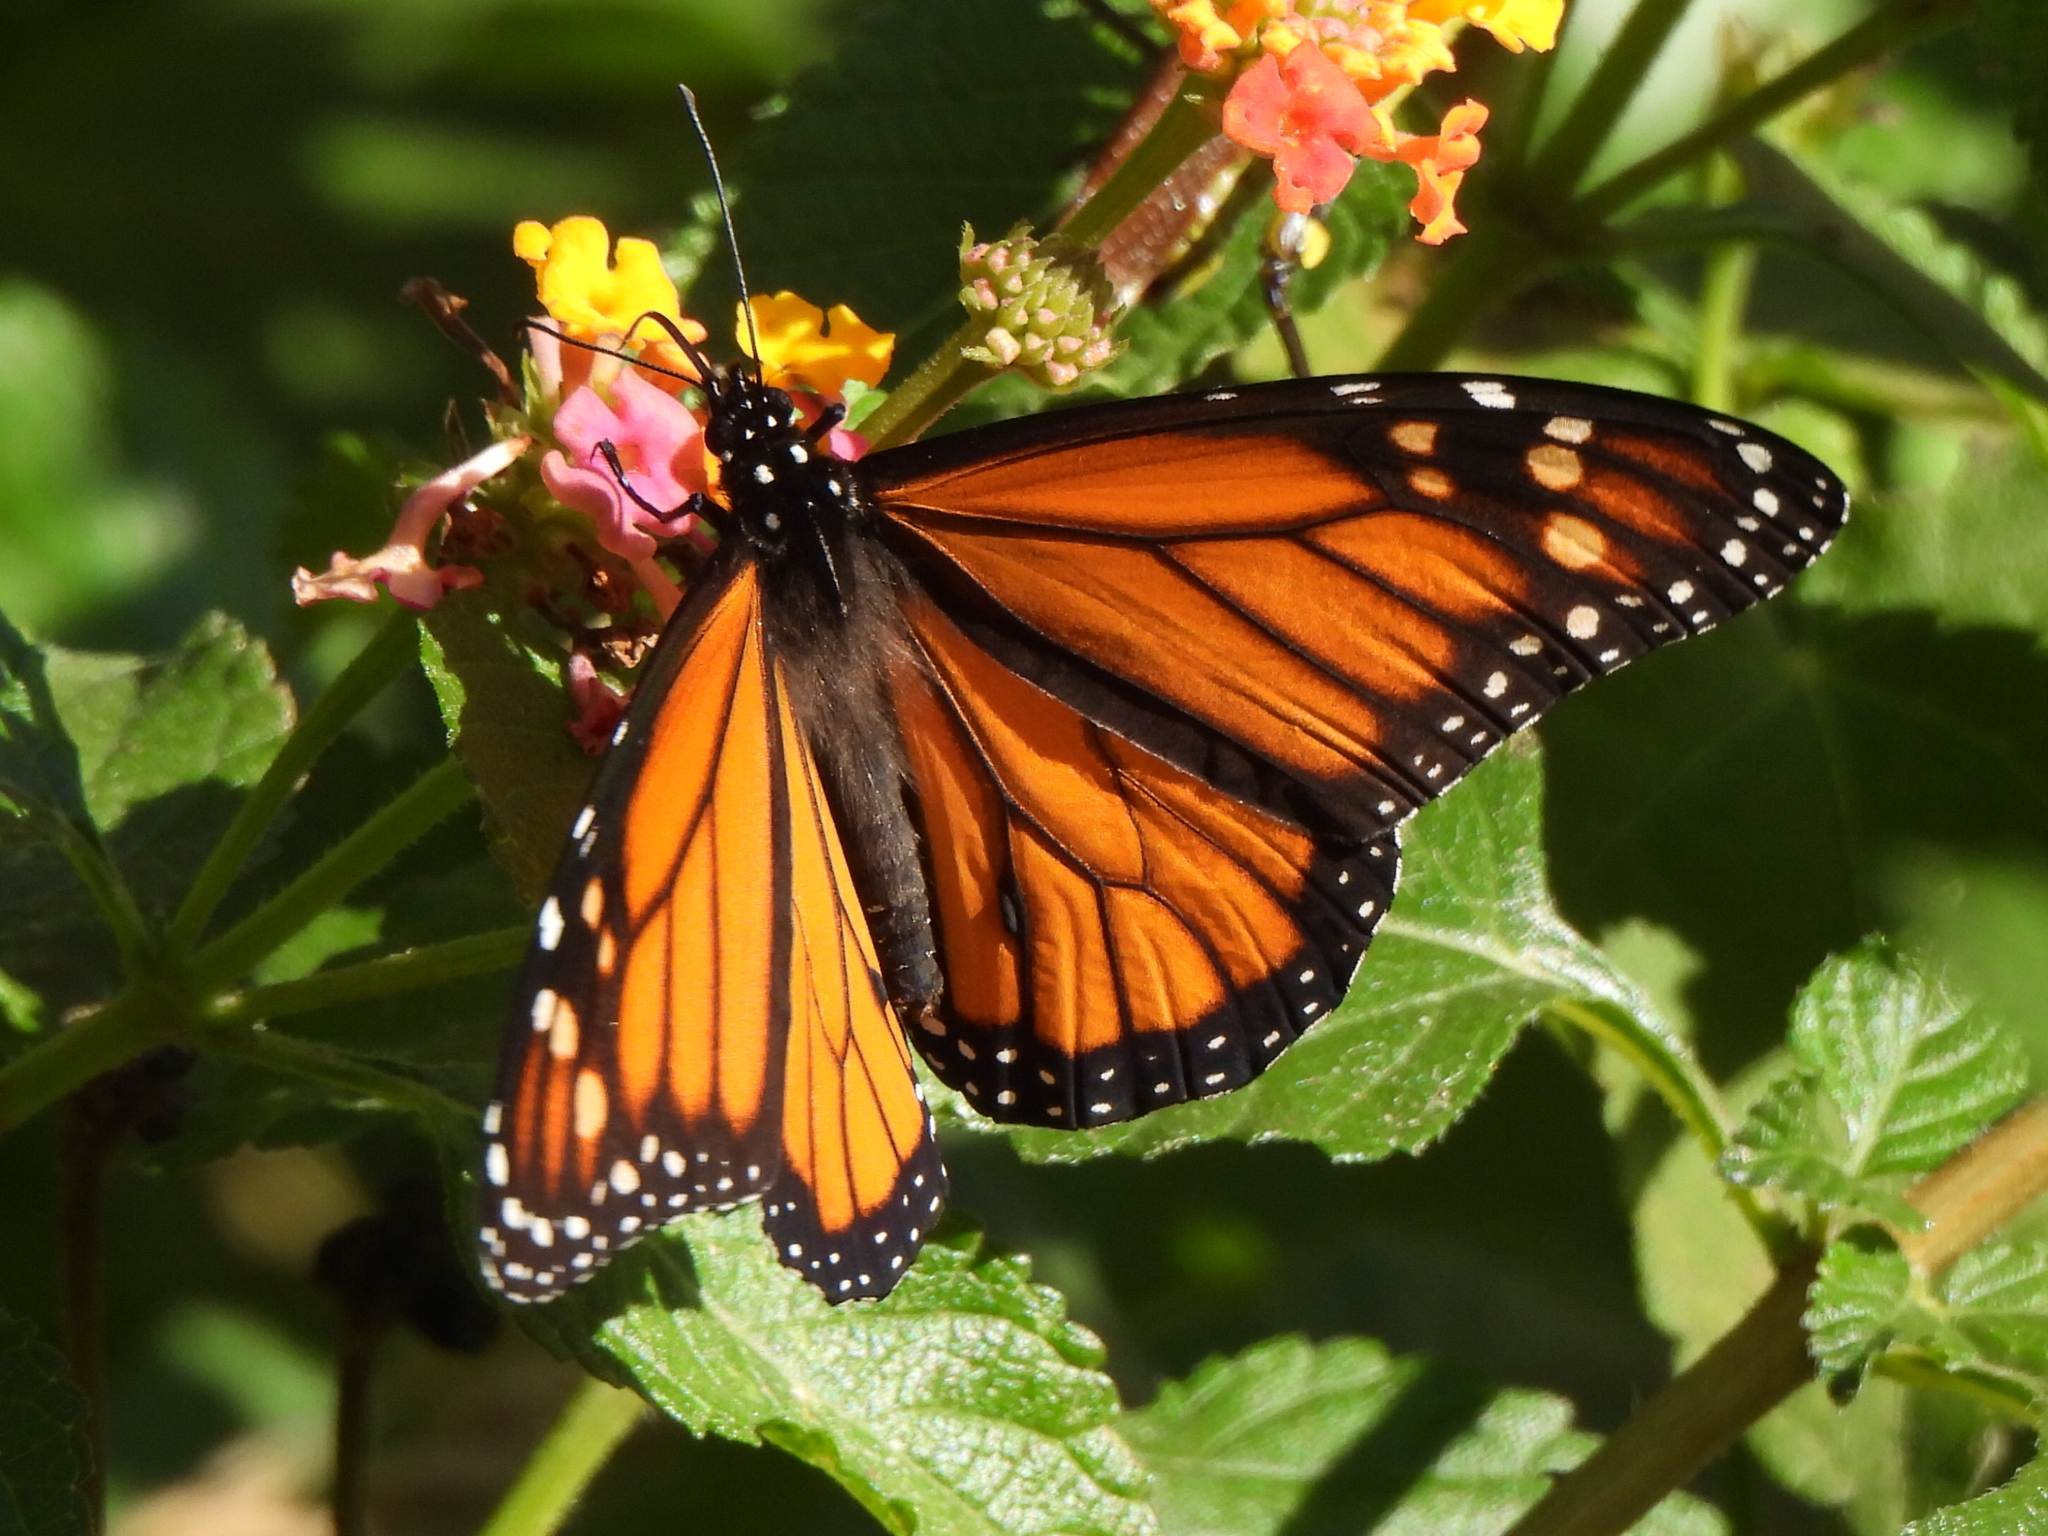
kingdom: Animalia
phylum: Arthropoda
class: Insecta
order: Lepidoptera
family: Nymphalidae
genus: Danaus
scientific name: Danaus plexippus
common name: Monarch
